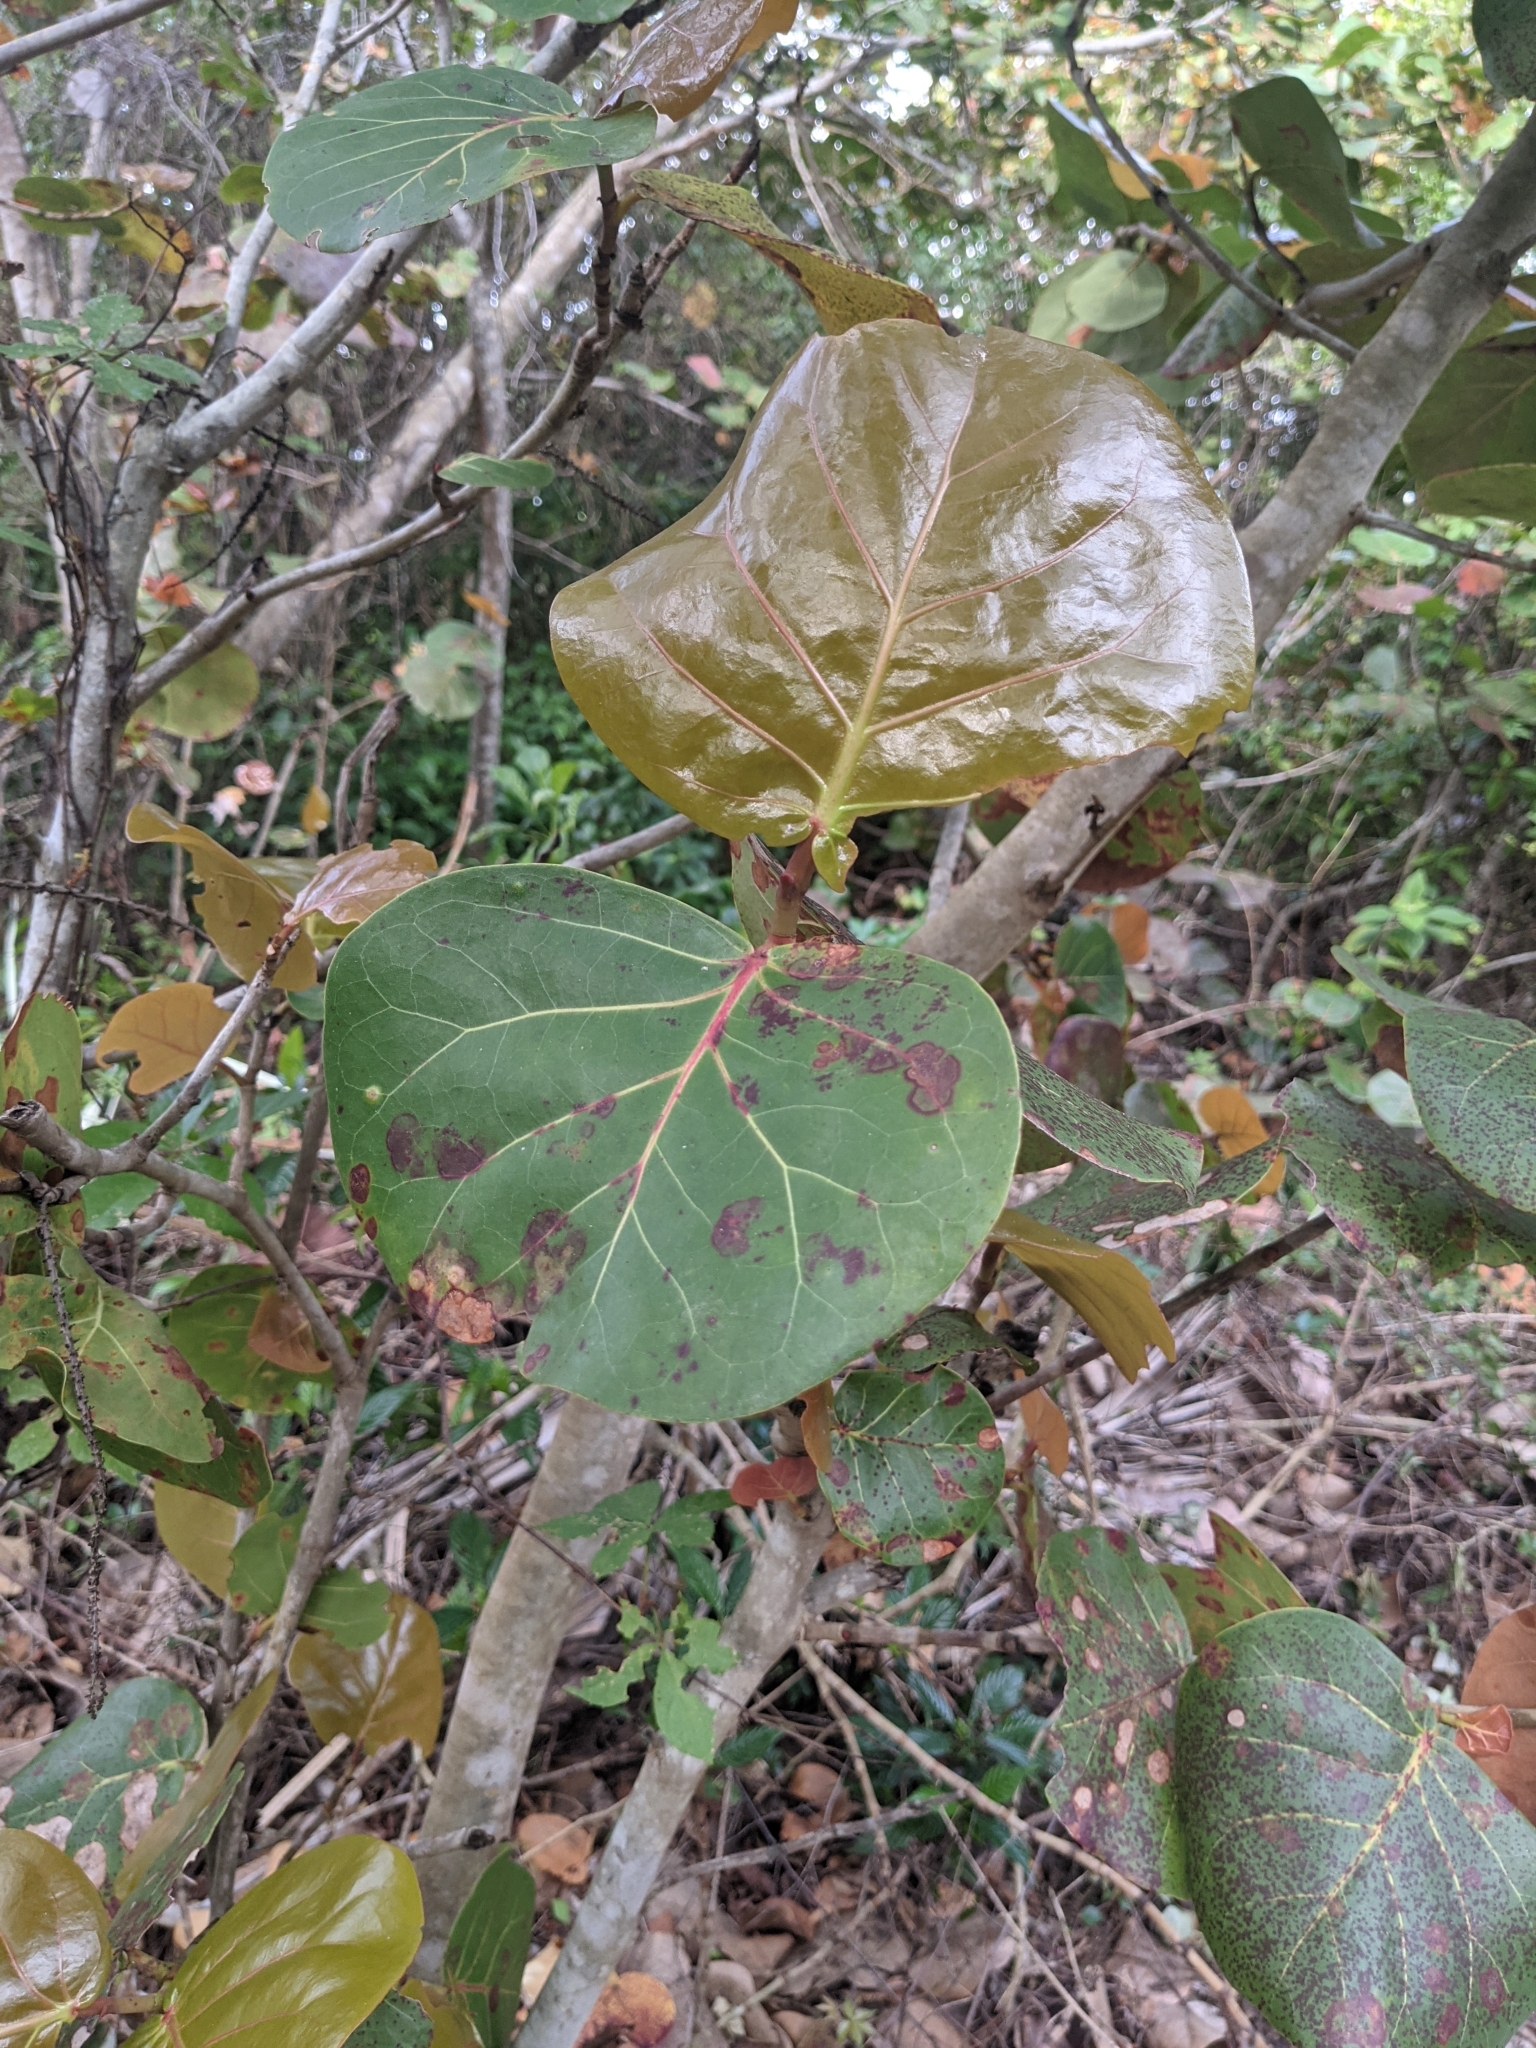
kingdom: Plantae
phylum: Tracheophyta
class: Magnoliopsida
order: Caryophyllales
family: Polygonaceae
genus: Coccoloba
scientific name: Coccoloba uvifera
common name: Seagrape
